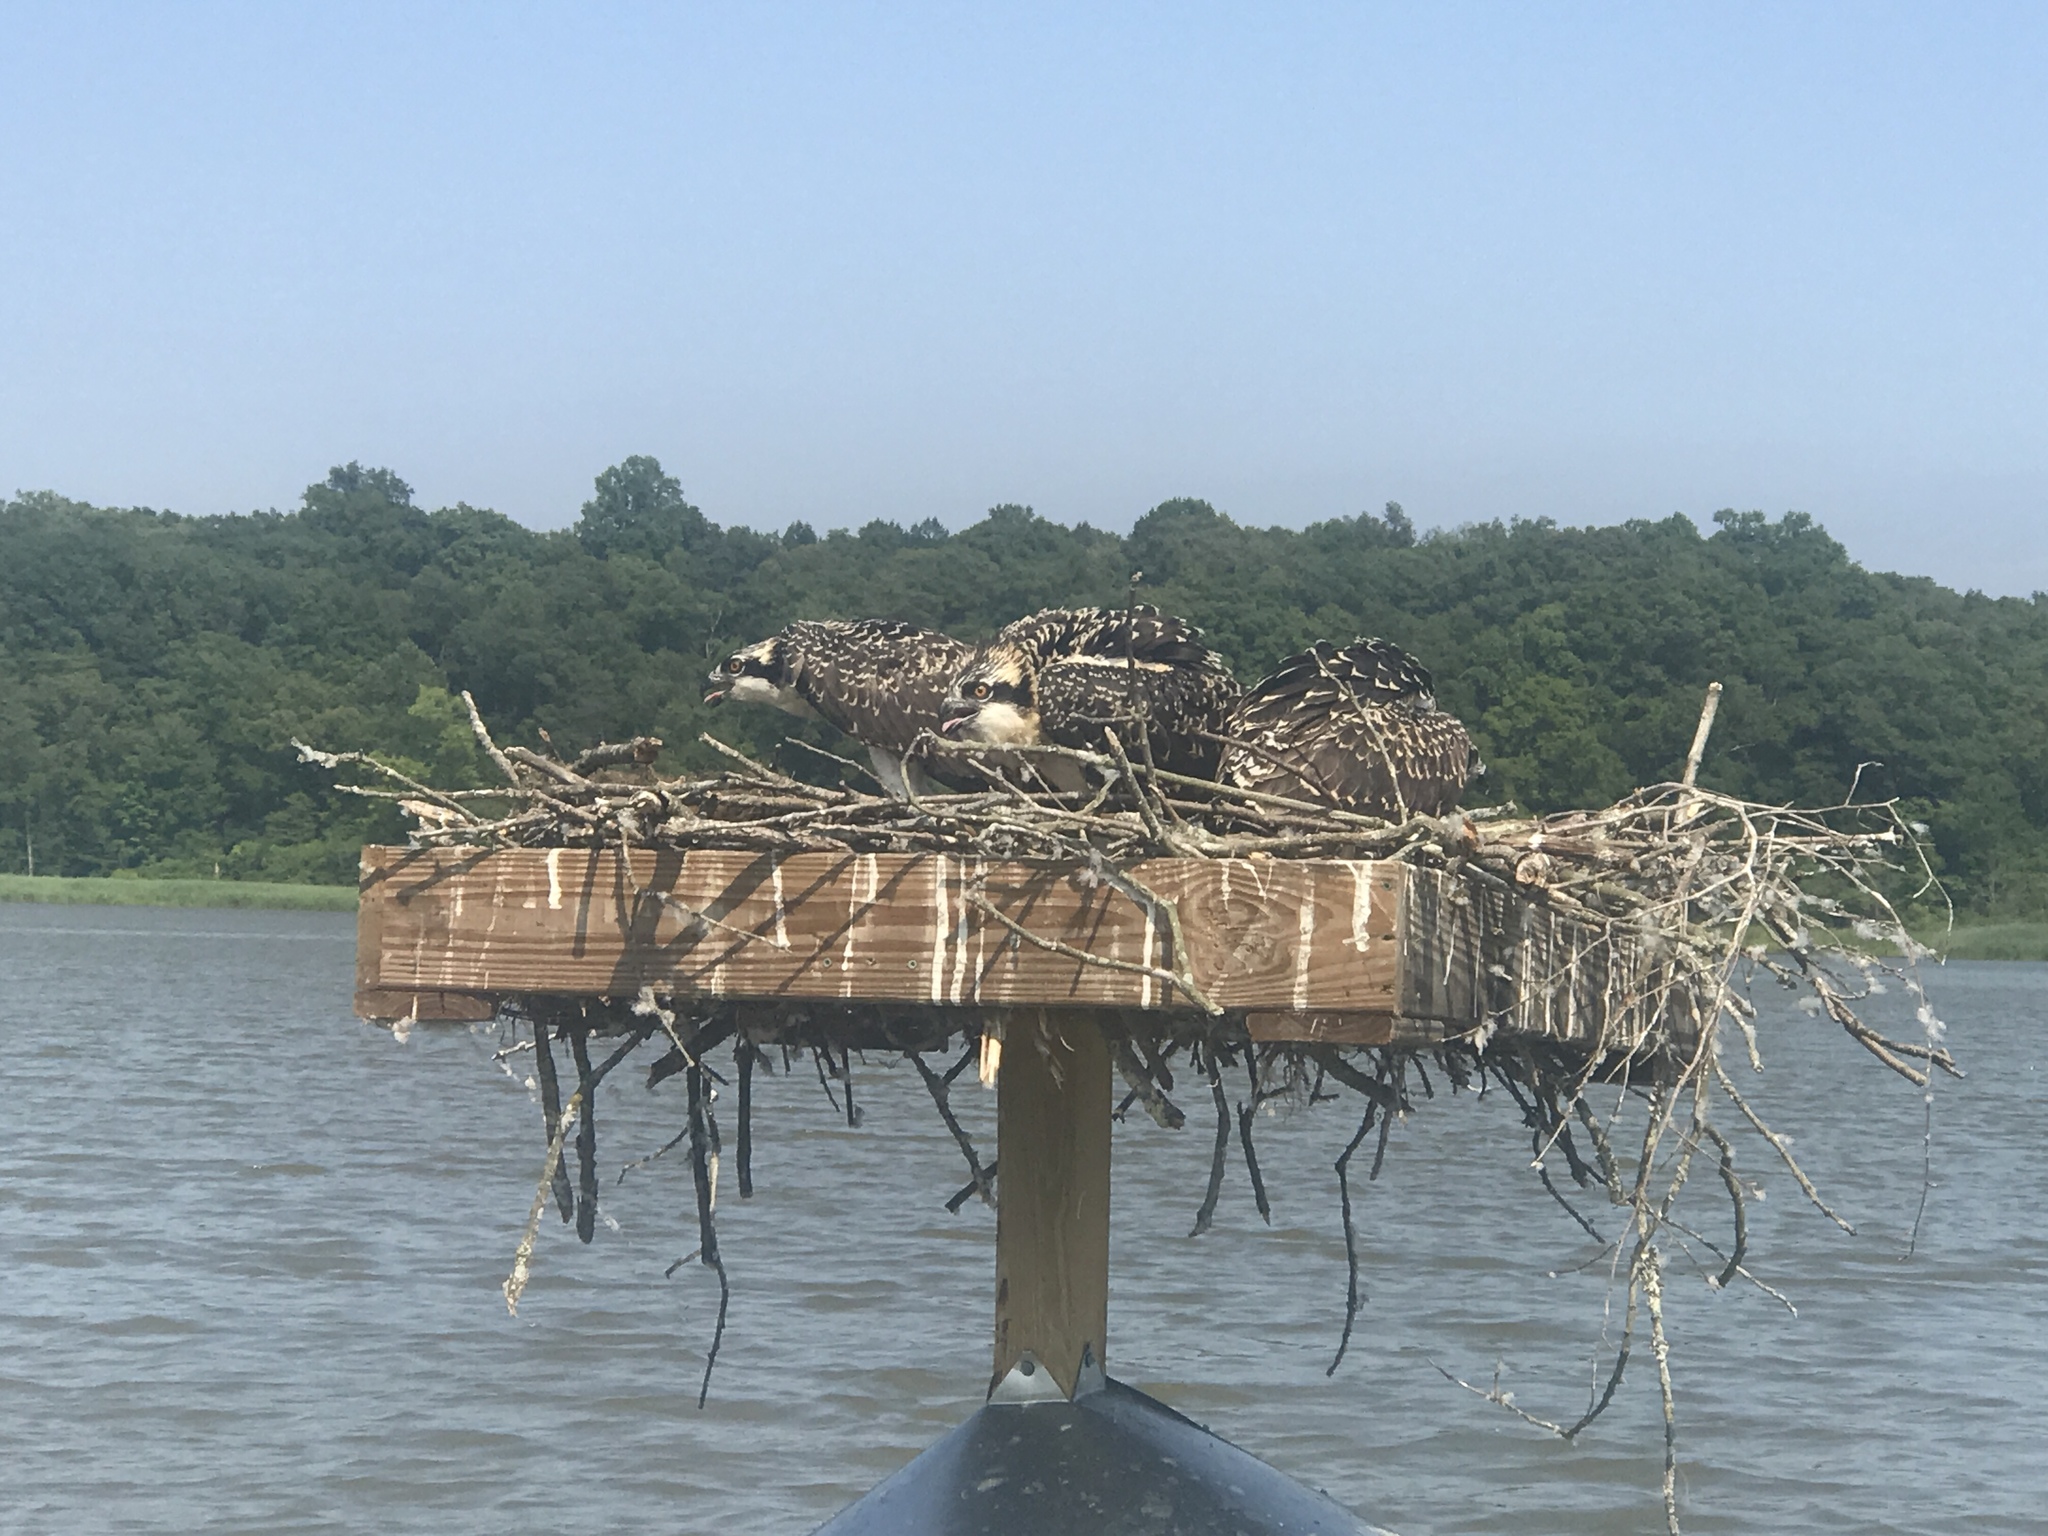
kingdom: Animalia
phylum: Chordata
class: Aves
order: Accipitriformes
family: Pandionidae
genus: Pandion
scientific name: Pandion haliaetus
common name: Osprey
